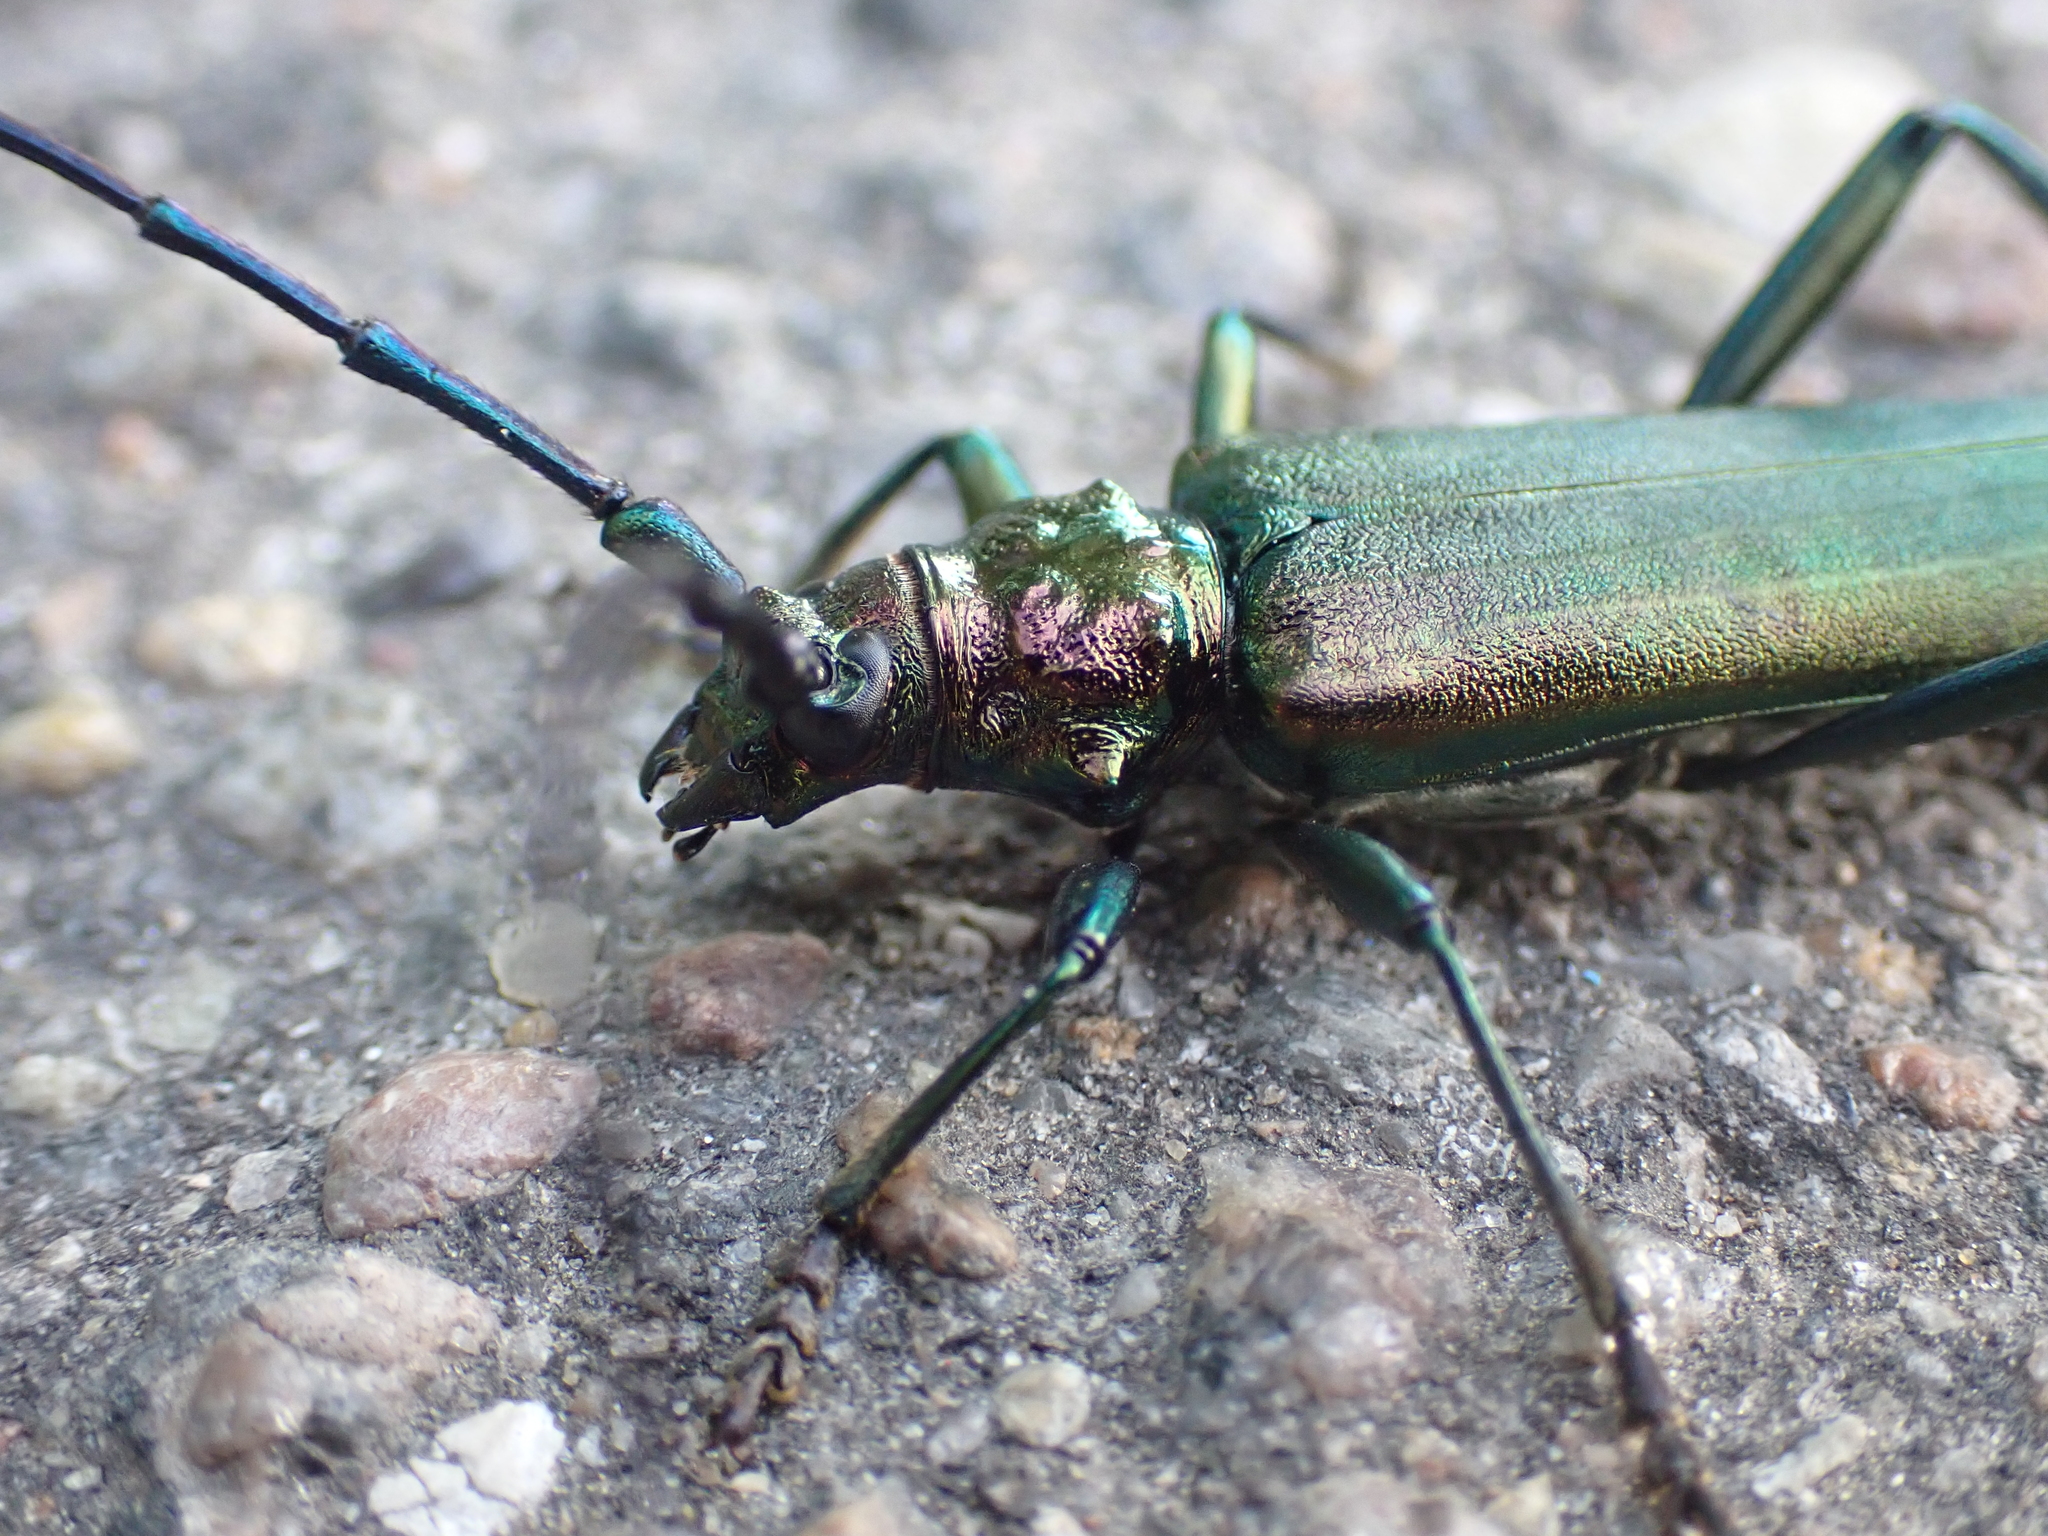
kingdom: Animalia
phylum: Arthropoda
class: Insecta
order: Coleoptera
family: Cerambycidae
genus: Aromia
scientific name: Aromia moschata
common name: Musk beetle
